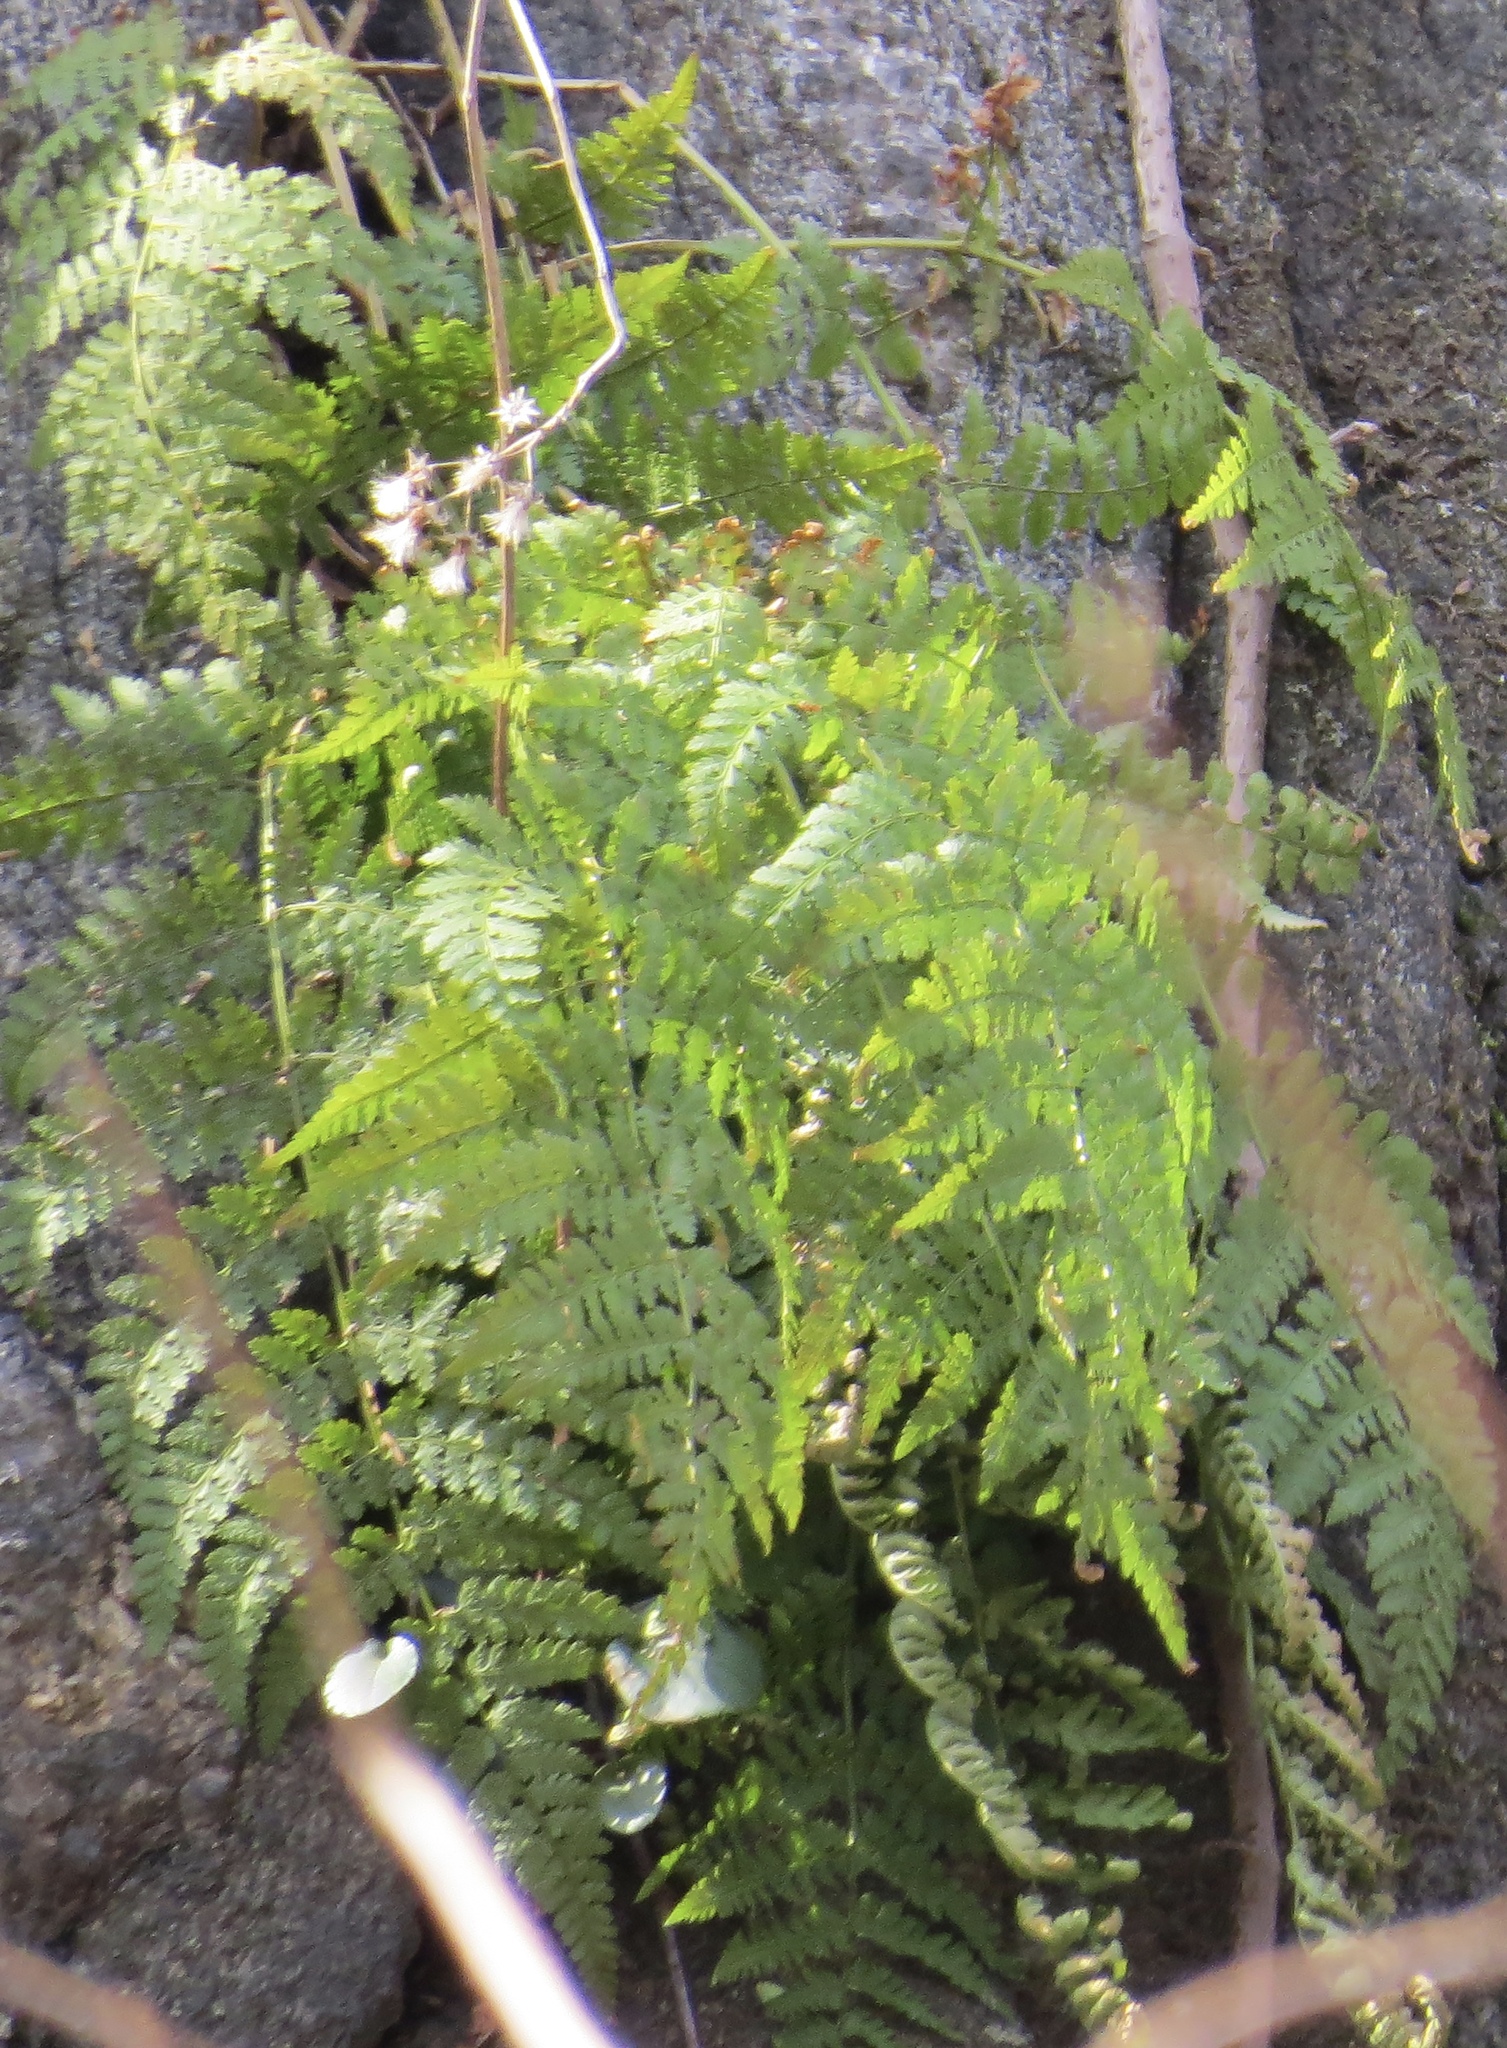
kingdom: Plantae
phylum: Tracheophyta
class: Polypodiopsida
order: Polypodiales
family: Dryopteridaceae
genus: Dryopteris
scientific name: Dryopteris intermedia
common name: Evergreen wood fern
